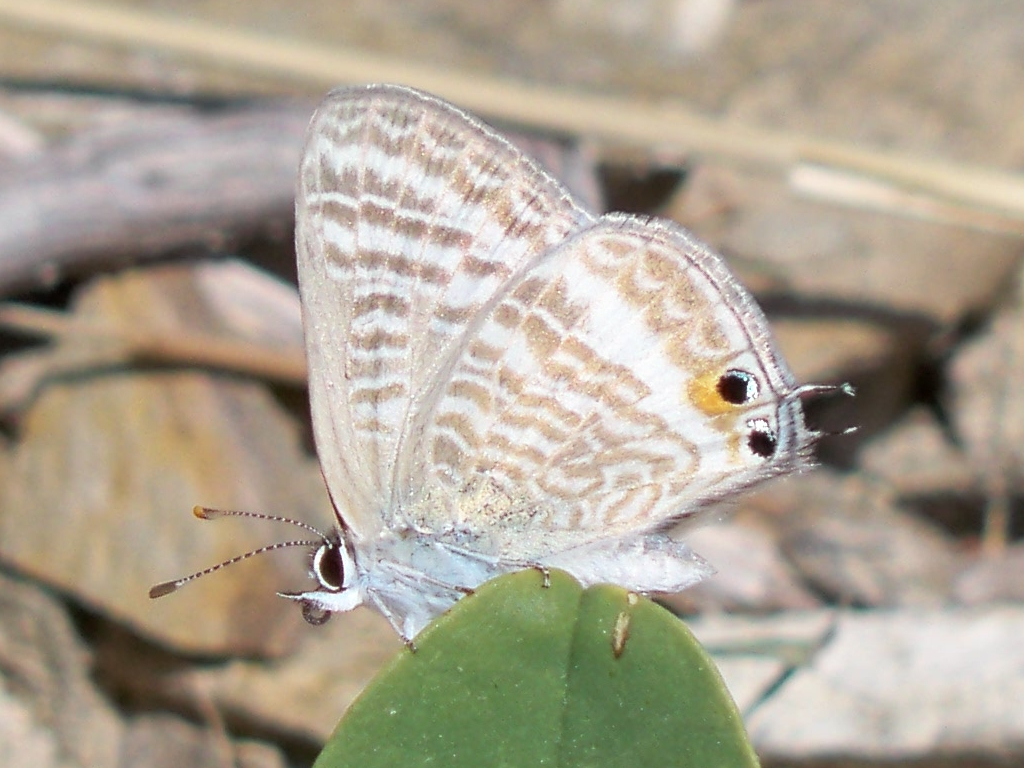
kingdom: Animalia
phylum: Arthropoda
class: Insecta
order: Lepidoptera
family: Lycaenidae
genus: Lampides
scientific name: Lampides boeticus
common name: Long-tailed blue
